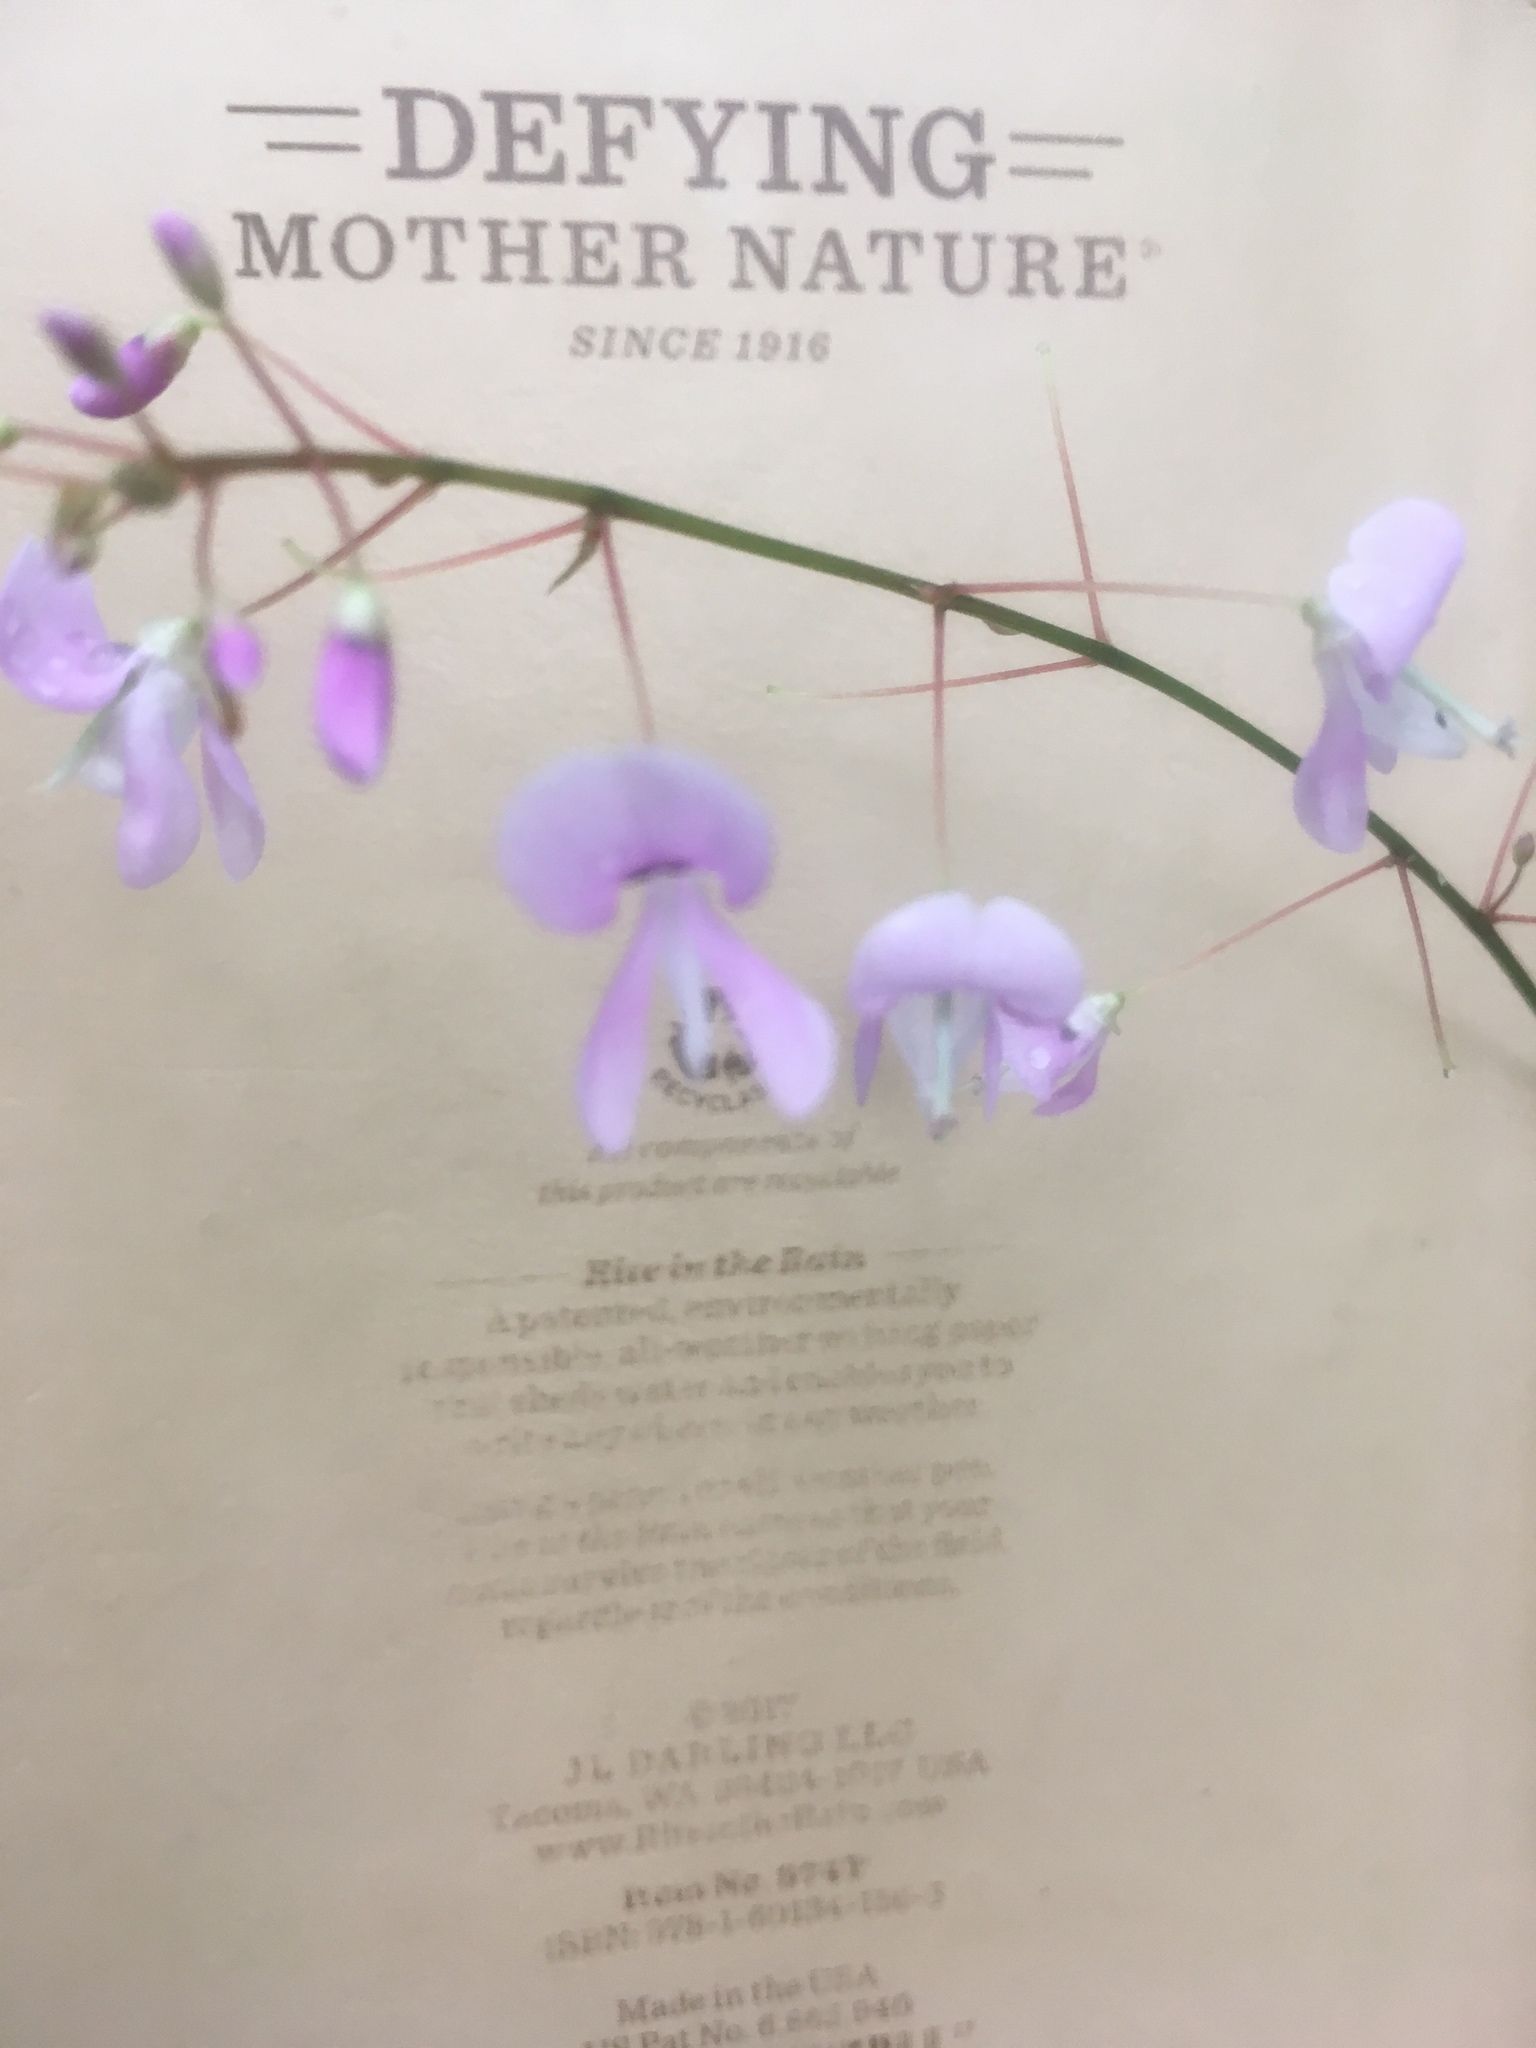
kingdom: Plantae
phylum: Tracheophyta
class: Magnoliopsida
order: Fabales
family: Fabaceae
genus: Hylodesmum
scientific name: Hylodesmum nudiflorum
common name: Bare-stemmed tick-trefoil
